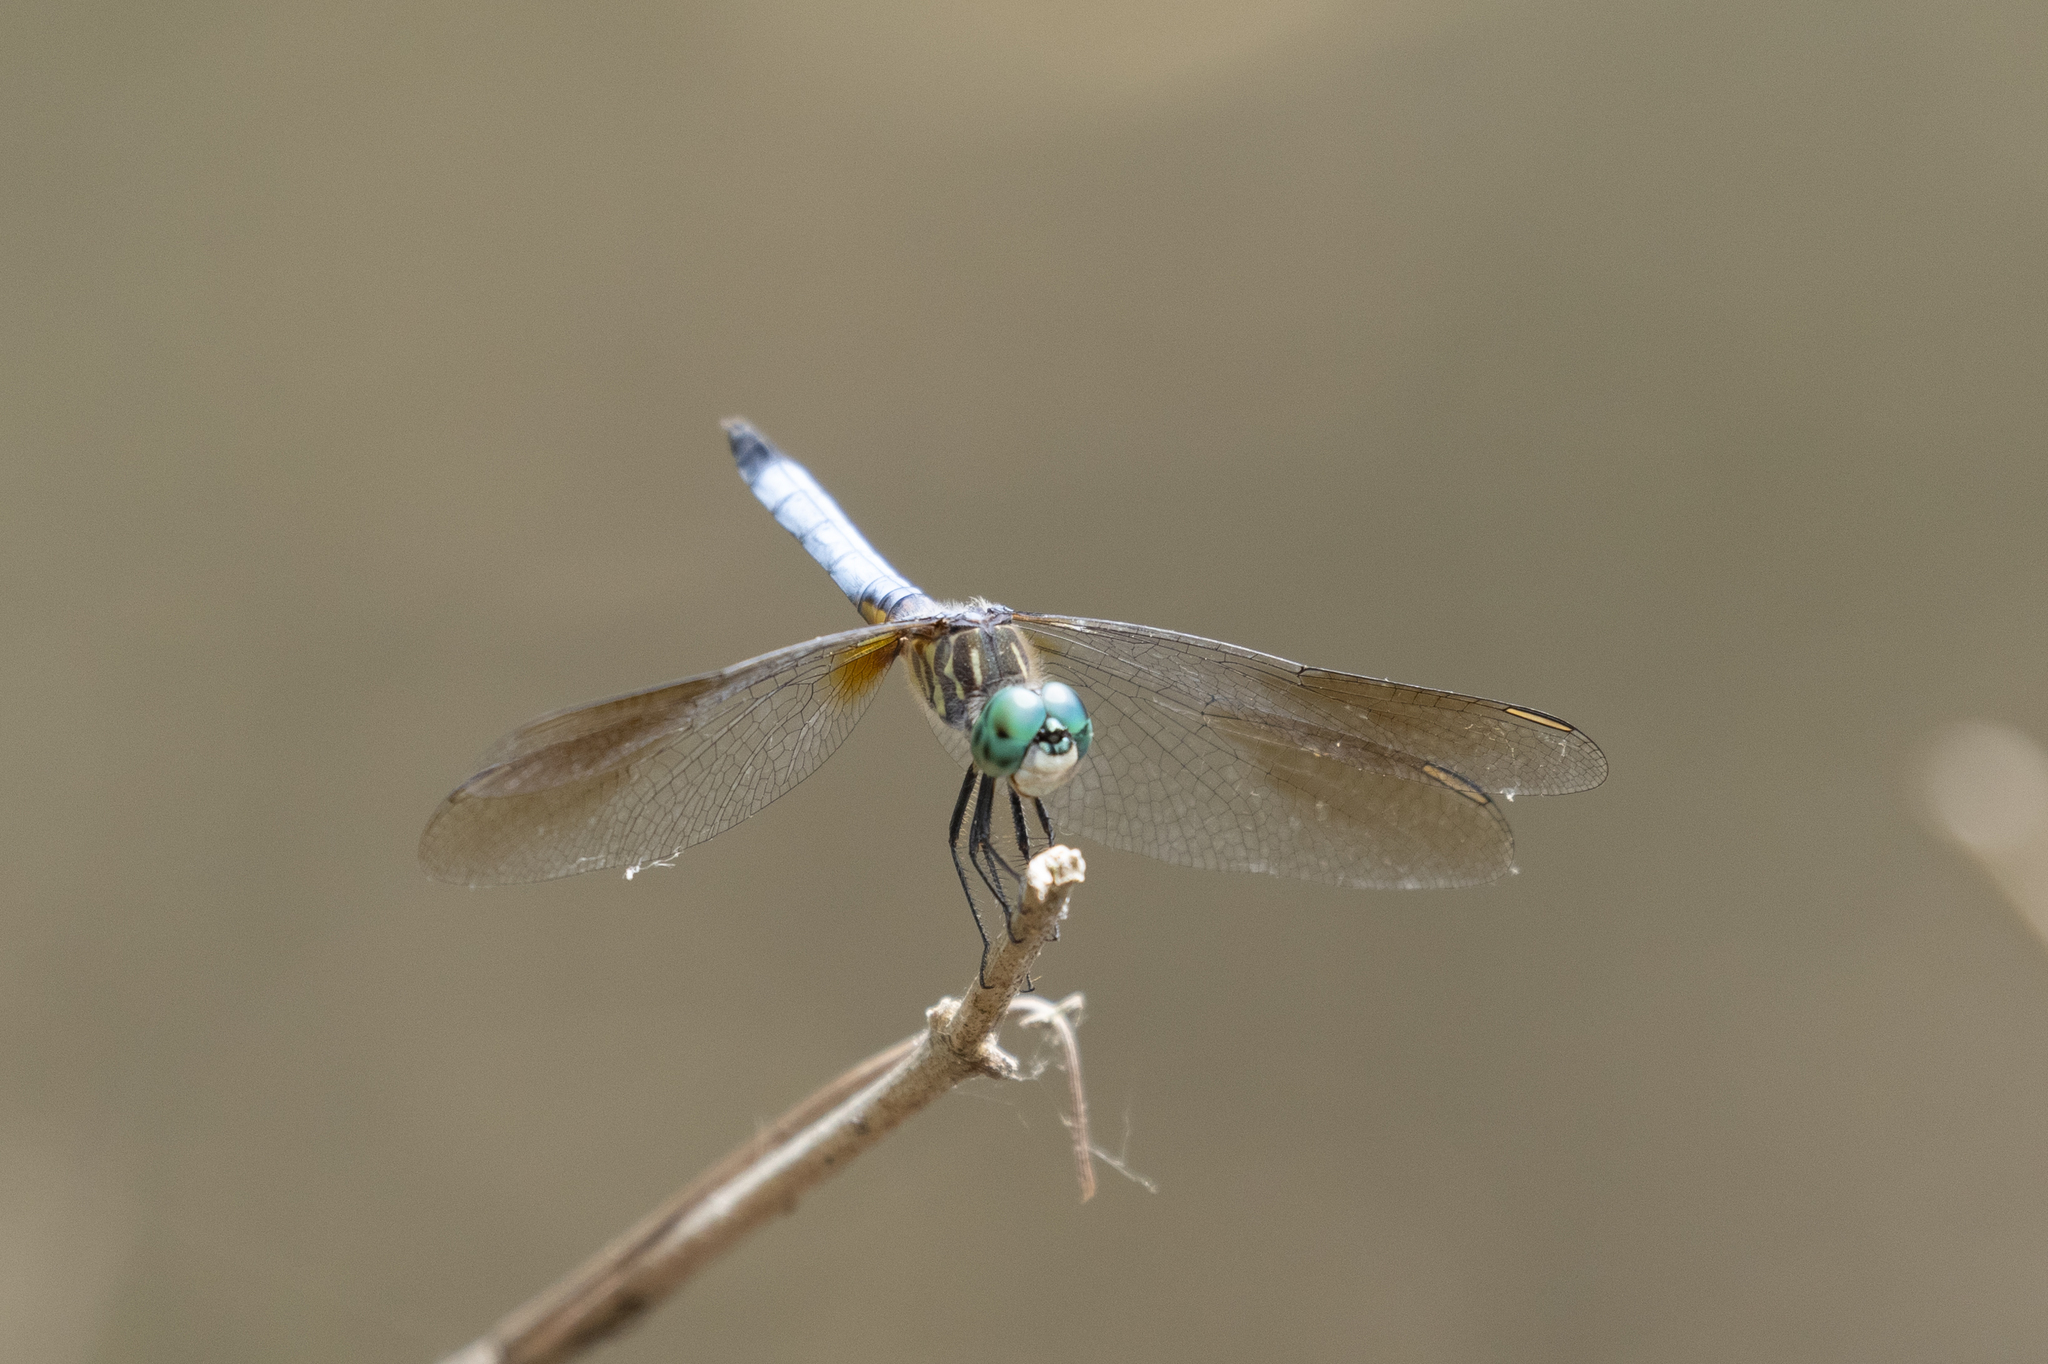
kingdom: Animalia
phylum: Arthropoda
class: Insecta
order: Odonata
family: Libellulidae
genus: Pachydiplax
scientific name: Pachydiplax longipennis
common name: Blue dasher
